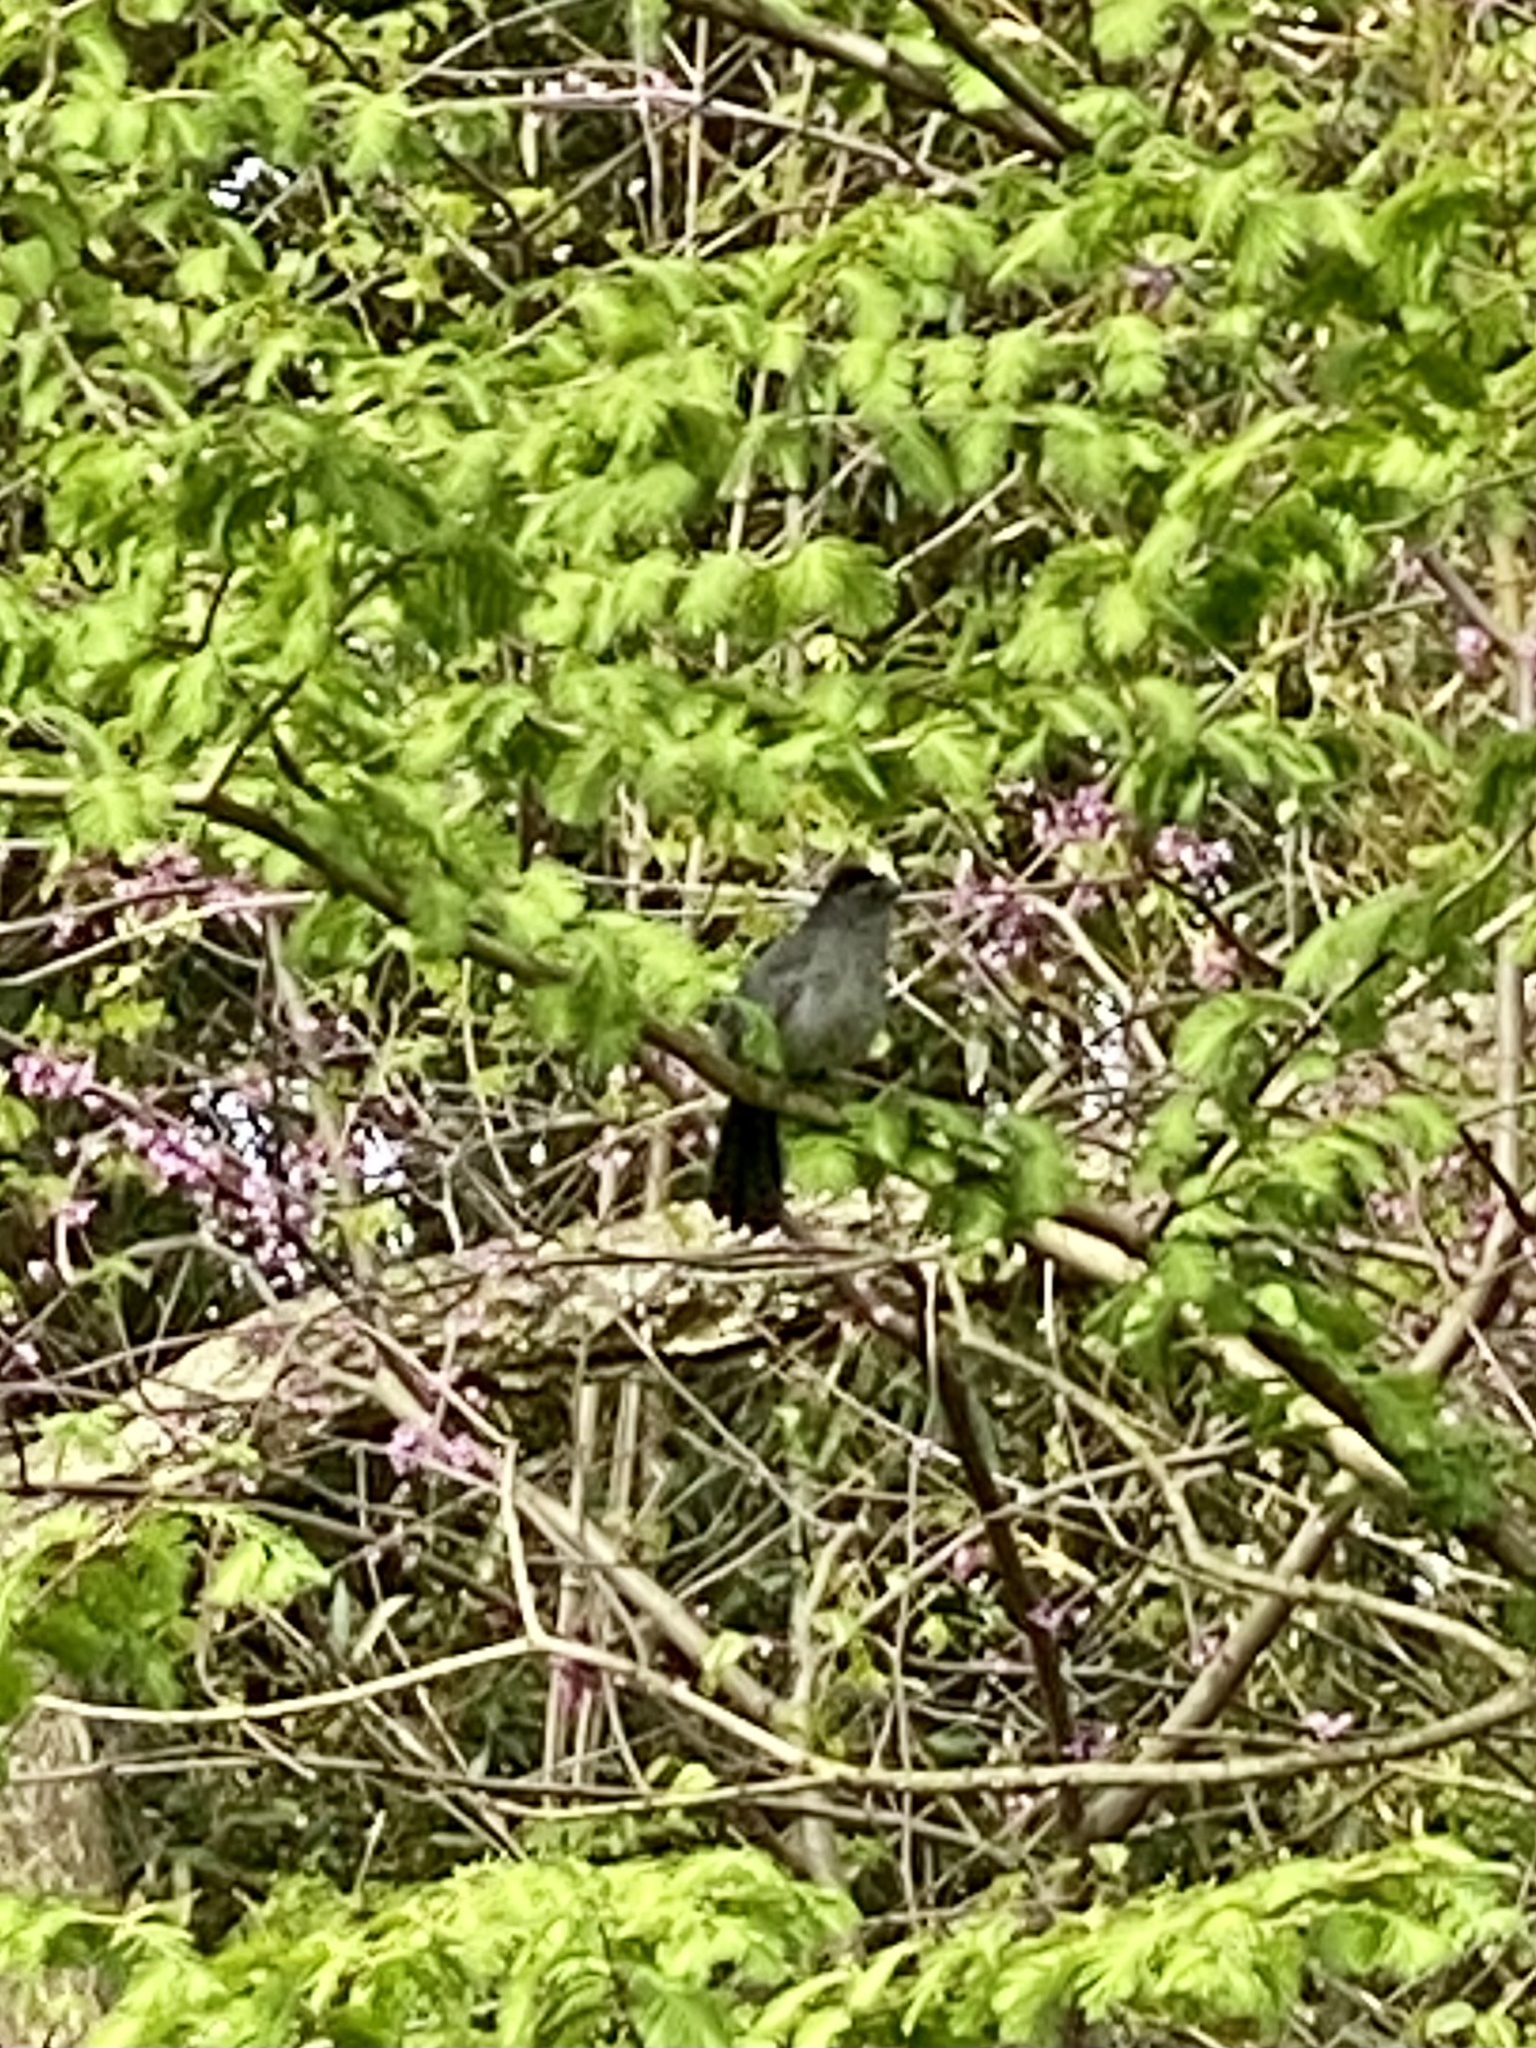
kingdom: Animalia
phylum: Chordata
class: Aves
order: Passeriformes
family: Mimidae
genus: Dumetella
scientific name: Dumetella carolinensis
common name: Gray catbird
